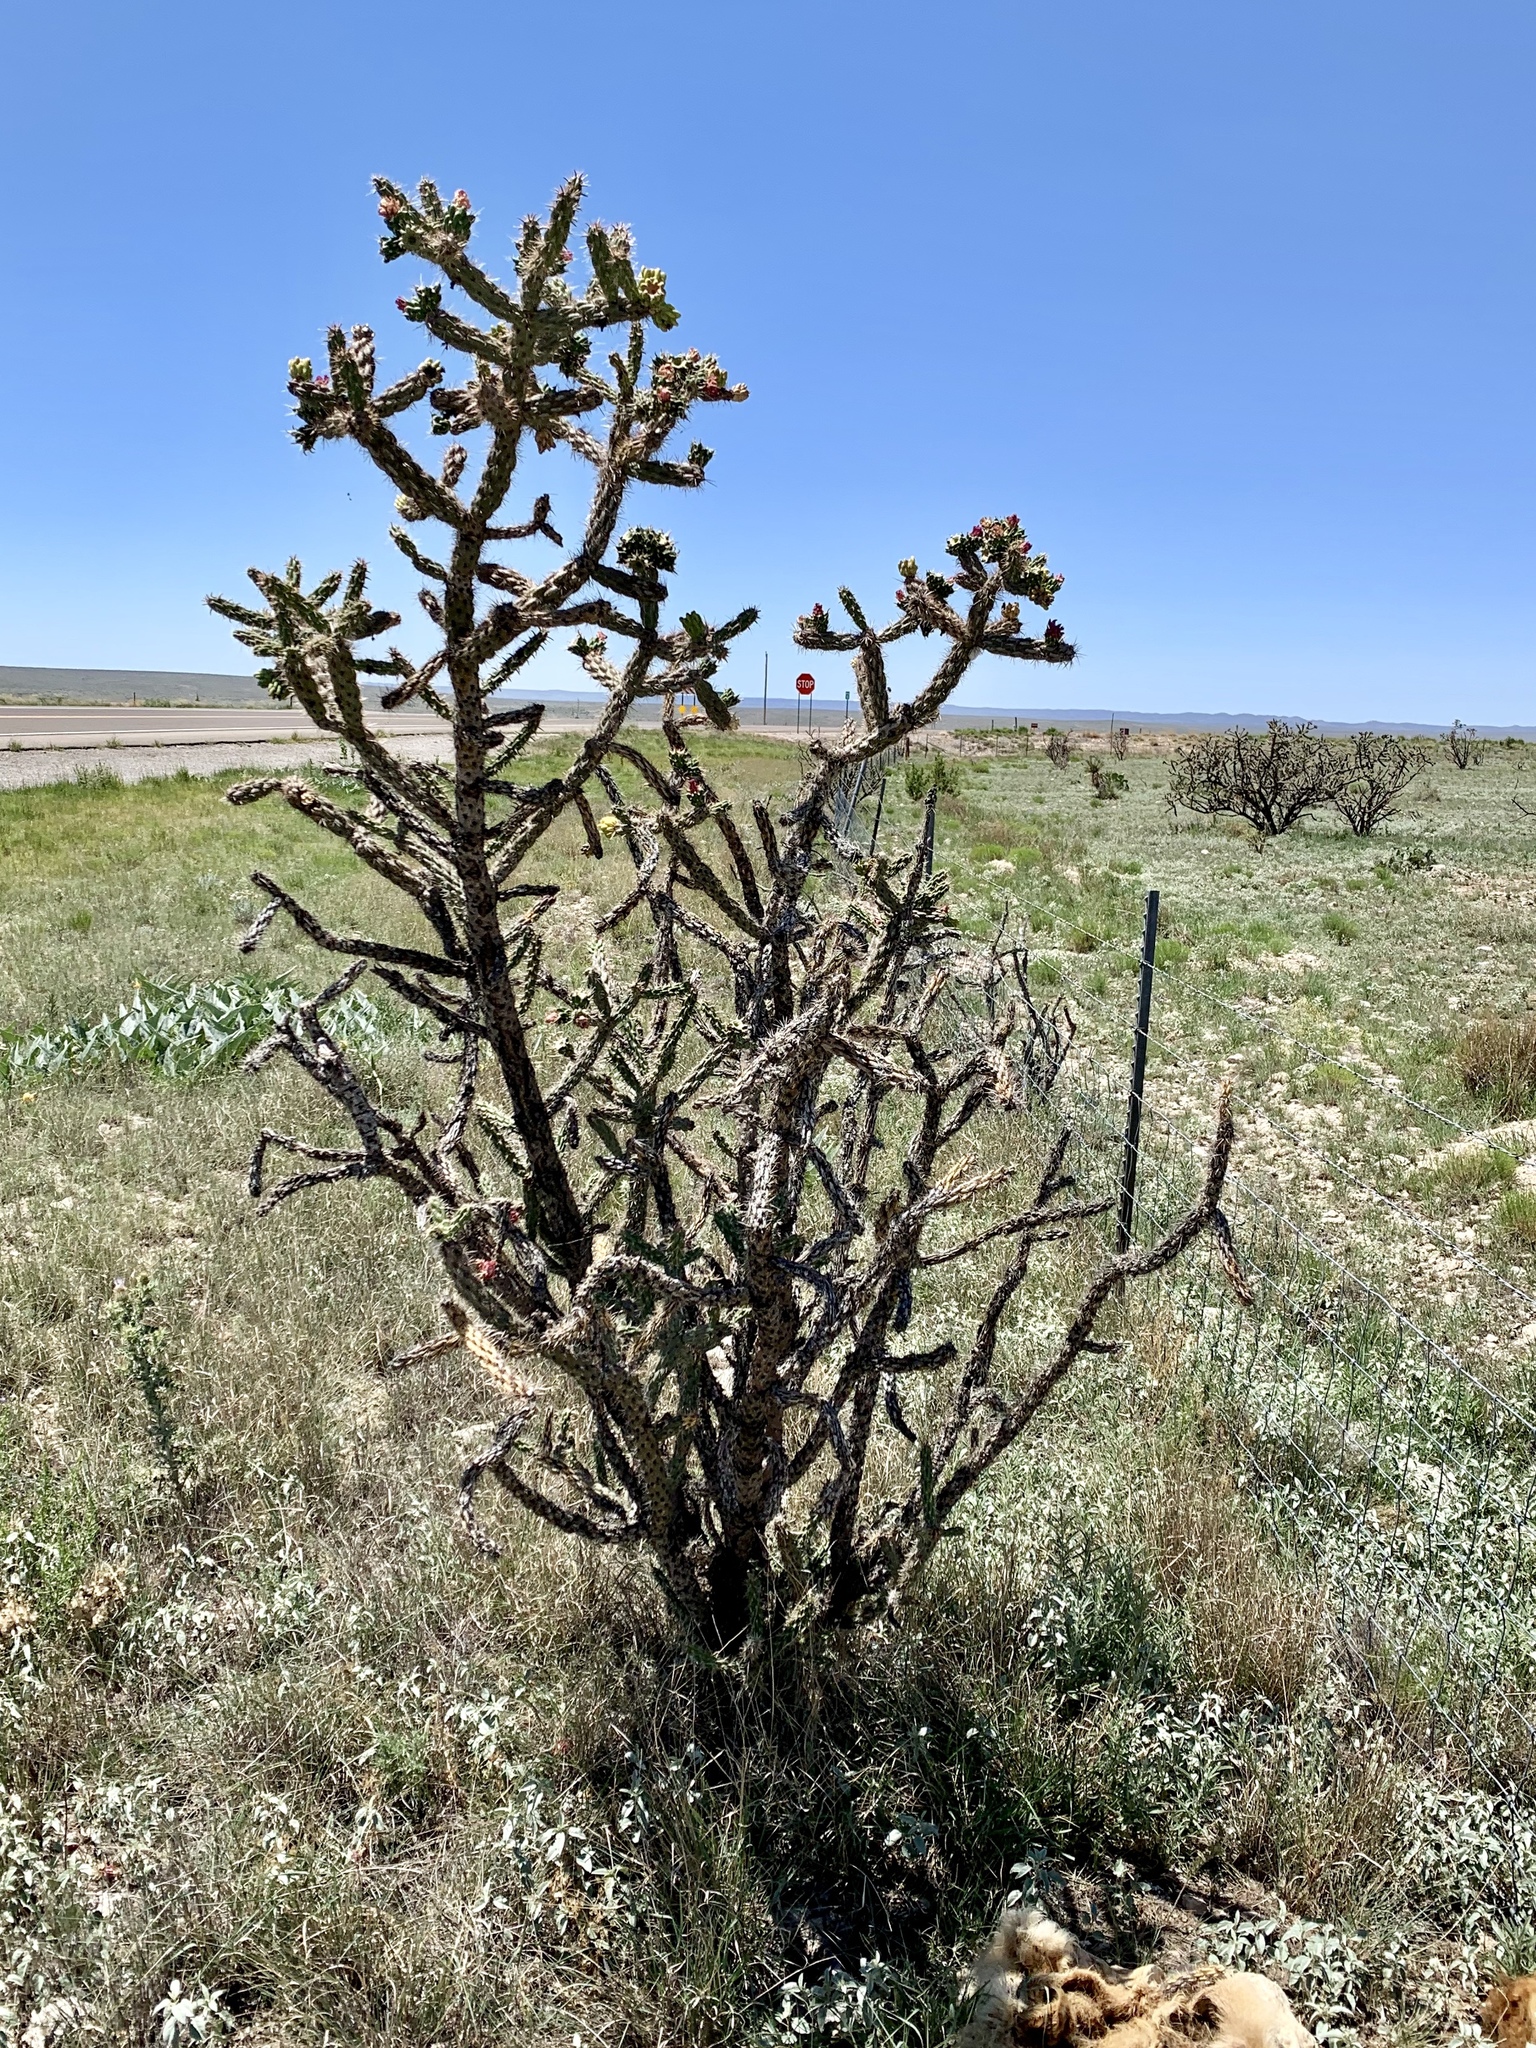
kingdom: Plantae
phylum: Tracheophyta
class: Magnoliopsida
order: Caryophyllales
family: Cactaceae
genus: Cylindropuntia
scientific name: Cylindropuntia imbricata
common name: Candelabrum cactus
